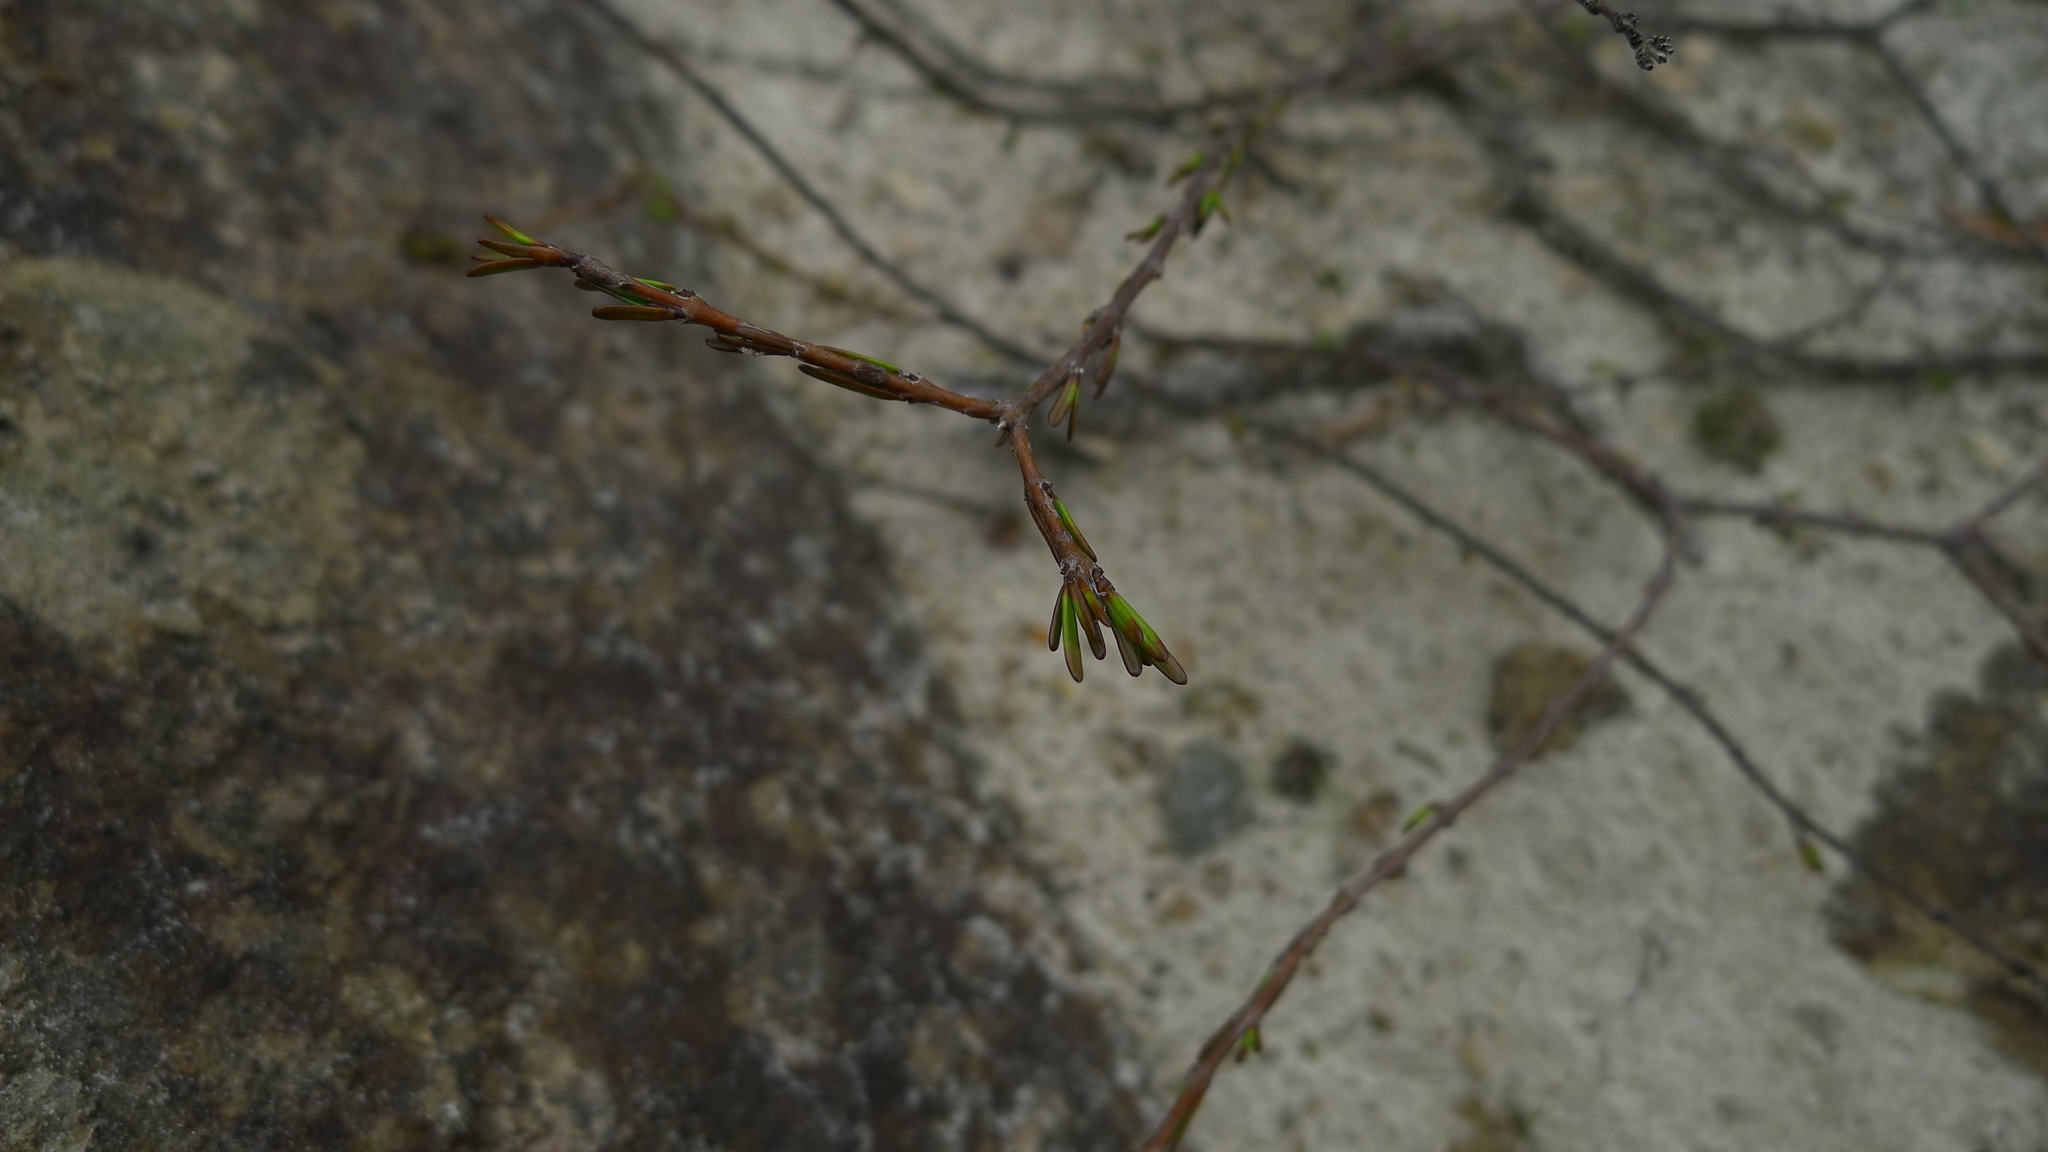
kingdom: Plantae
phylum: Tracheophyta
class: Magnoliopsida
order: Gentianales
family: Rubiaceae
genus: Coprosma
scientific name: Coprosma acerosa
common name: Sand coprosma
